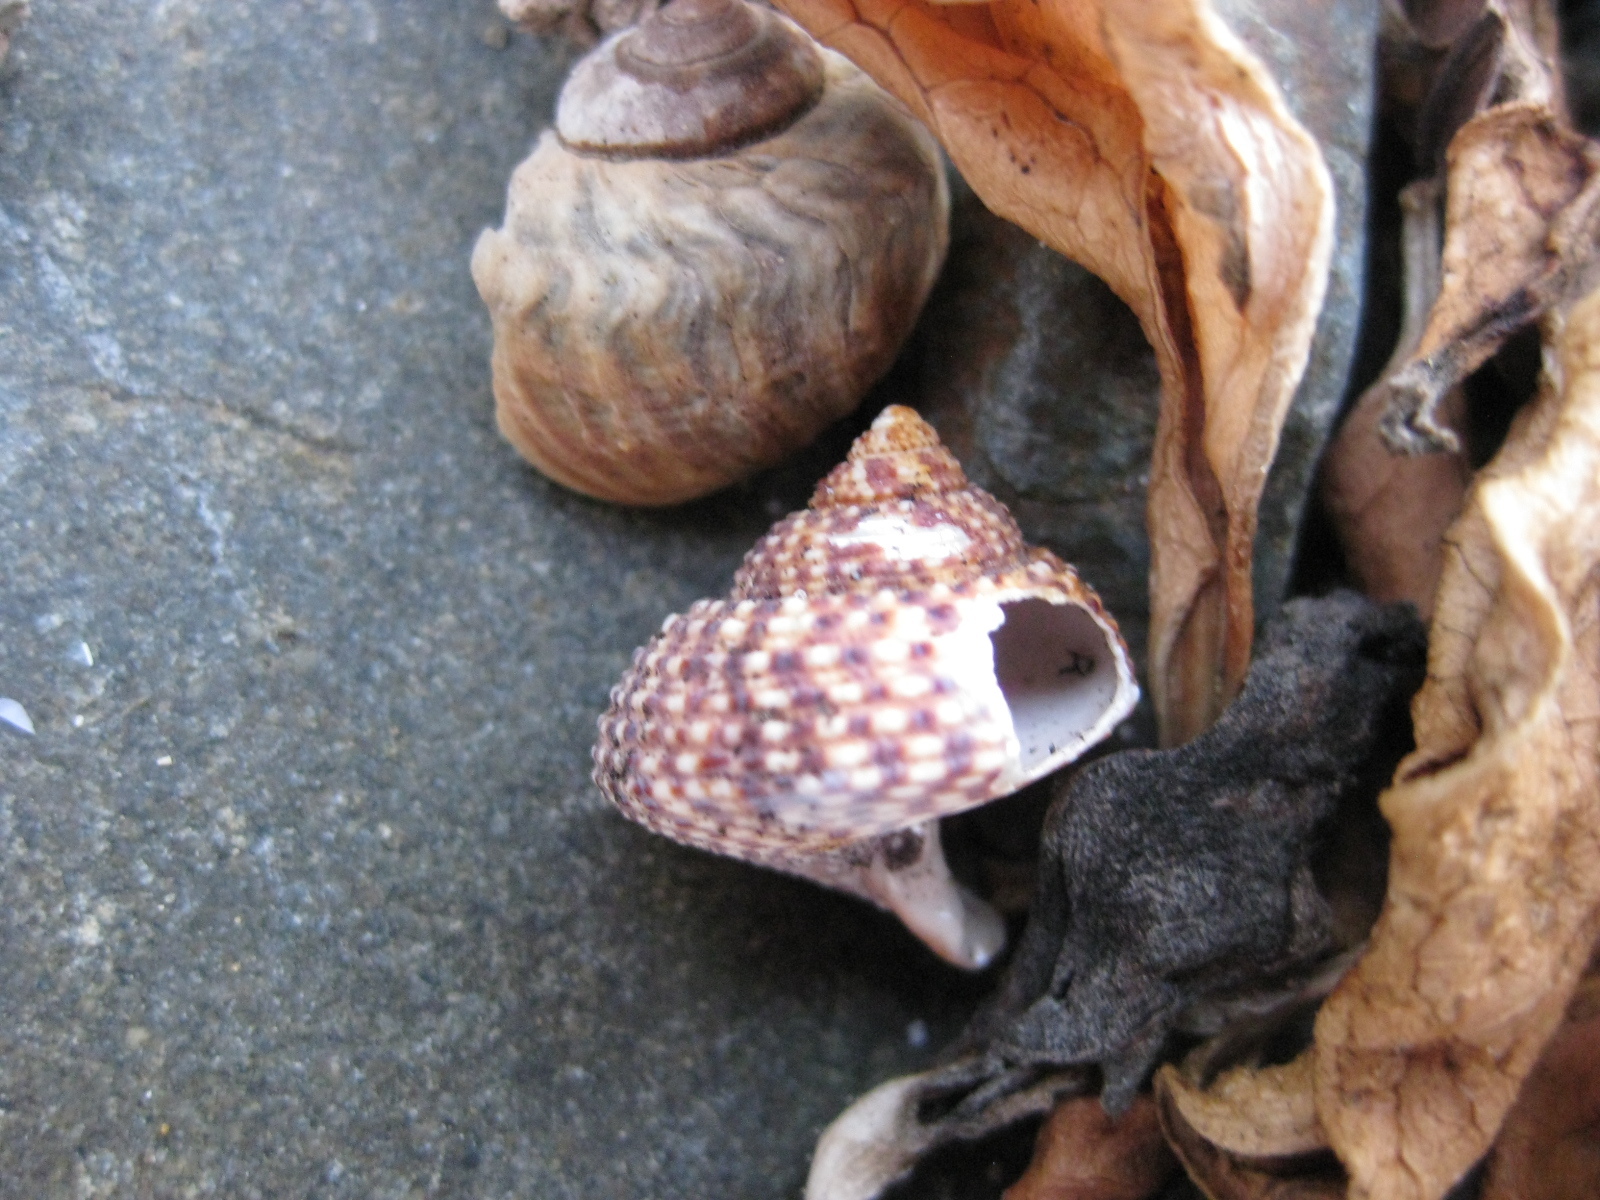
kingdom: Animalia
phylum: Mollusca
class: Gastropoda
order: Trochida
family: Calliostomatidae
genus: Maurea
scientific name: Maurea punctulata
